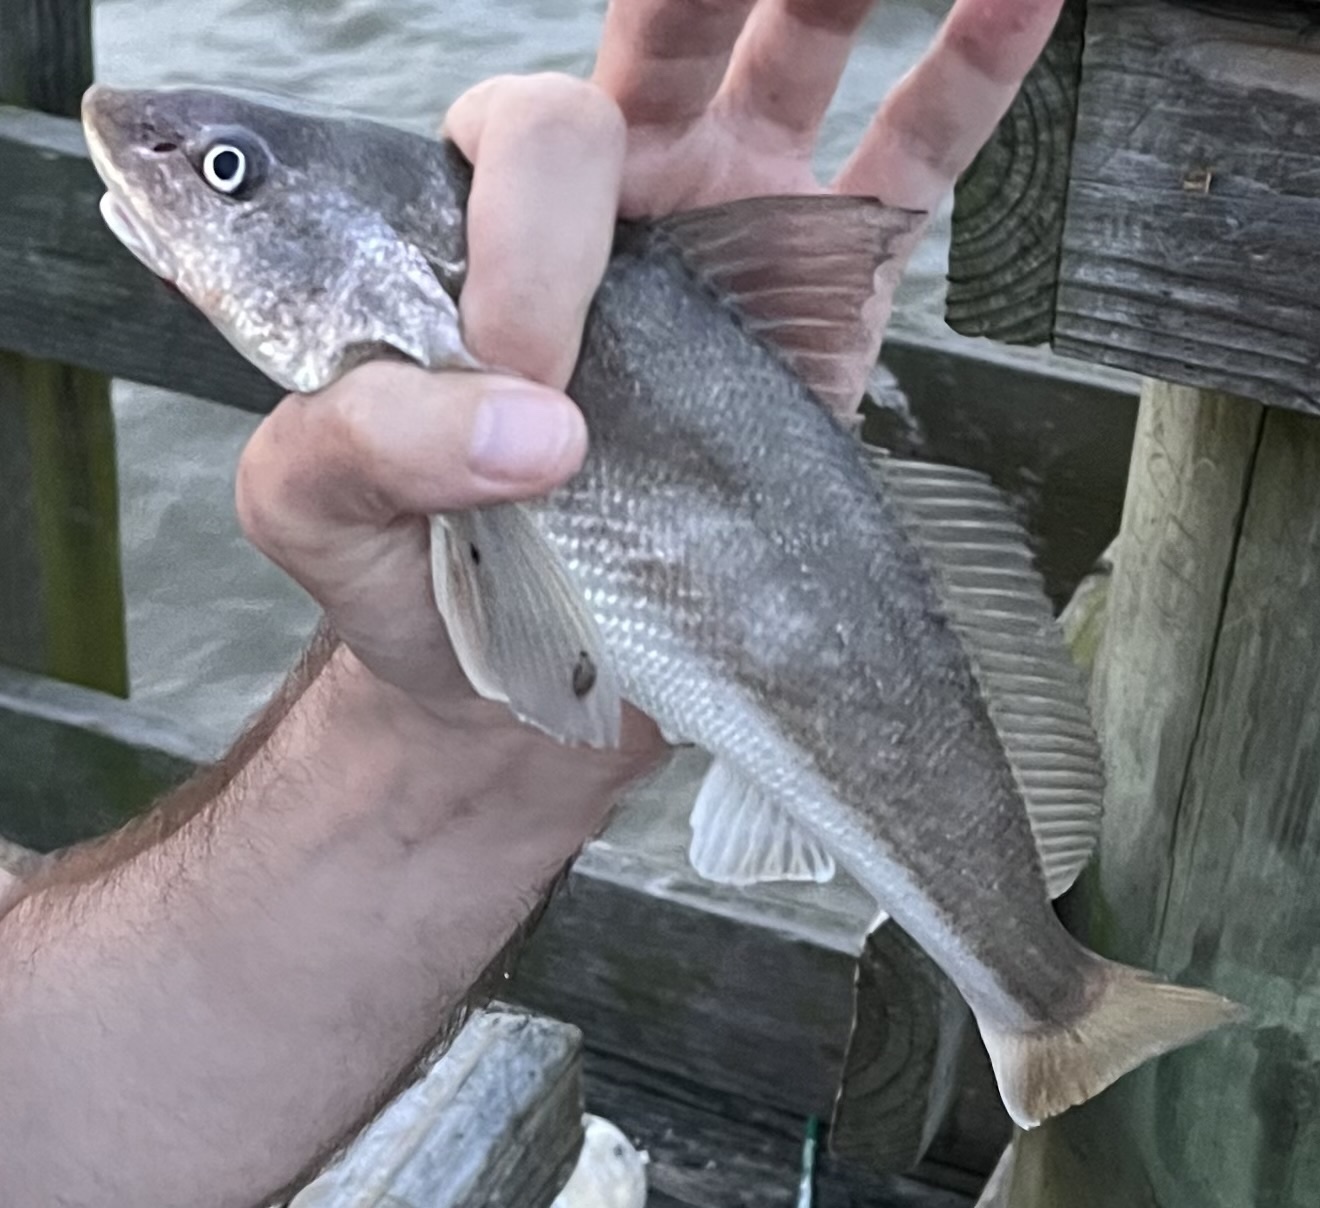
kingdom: Animalia
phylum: Chordata
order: Perciformes
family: Sciaenidae
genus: Menticirrhus
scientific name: Menticirrhus americanus
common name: Southern kingfish
